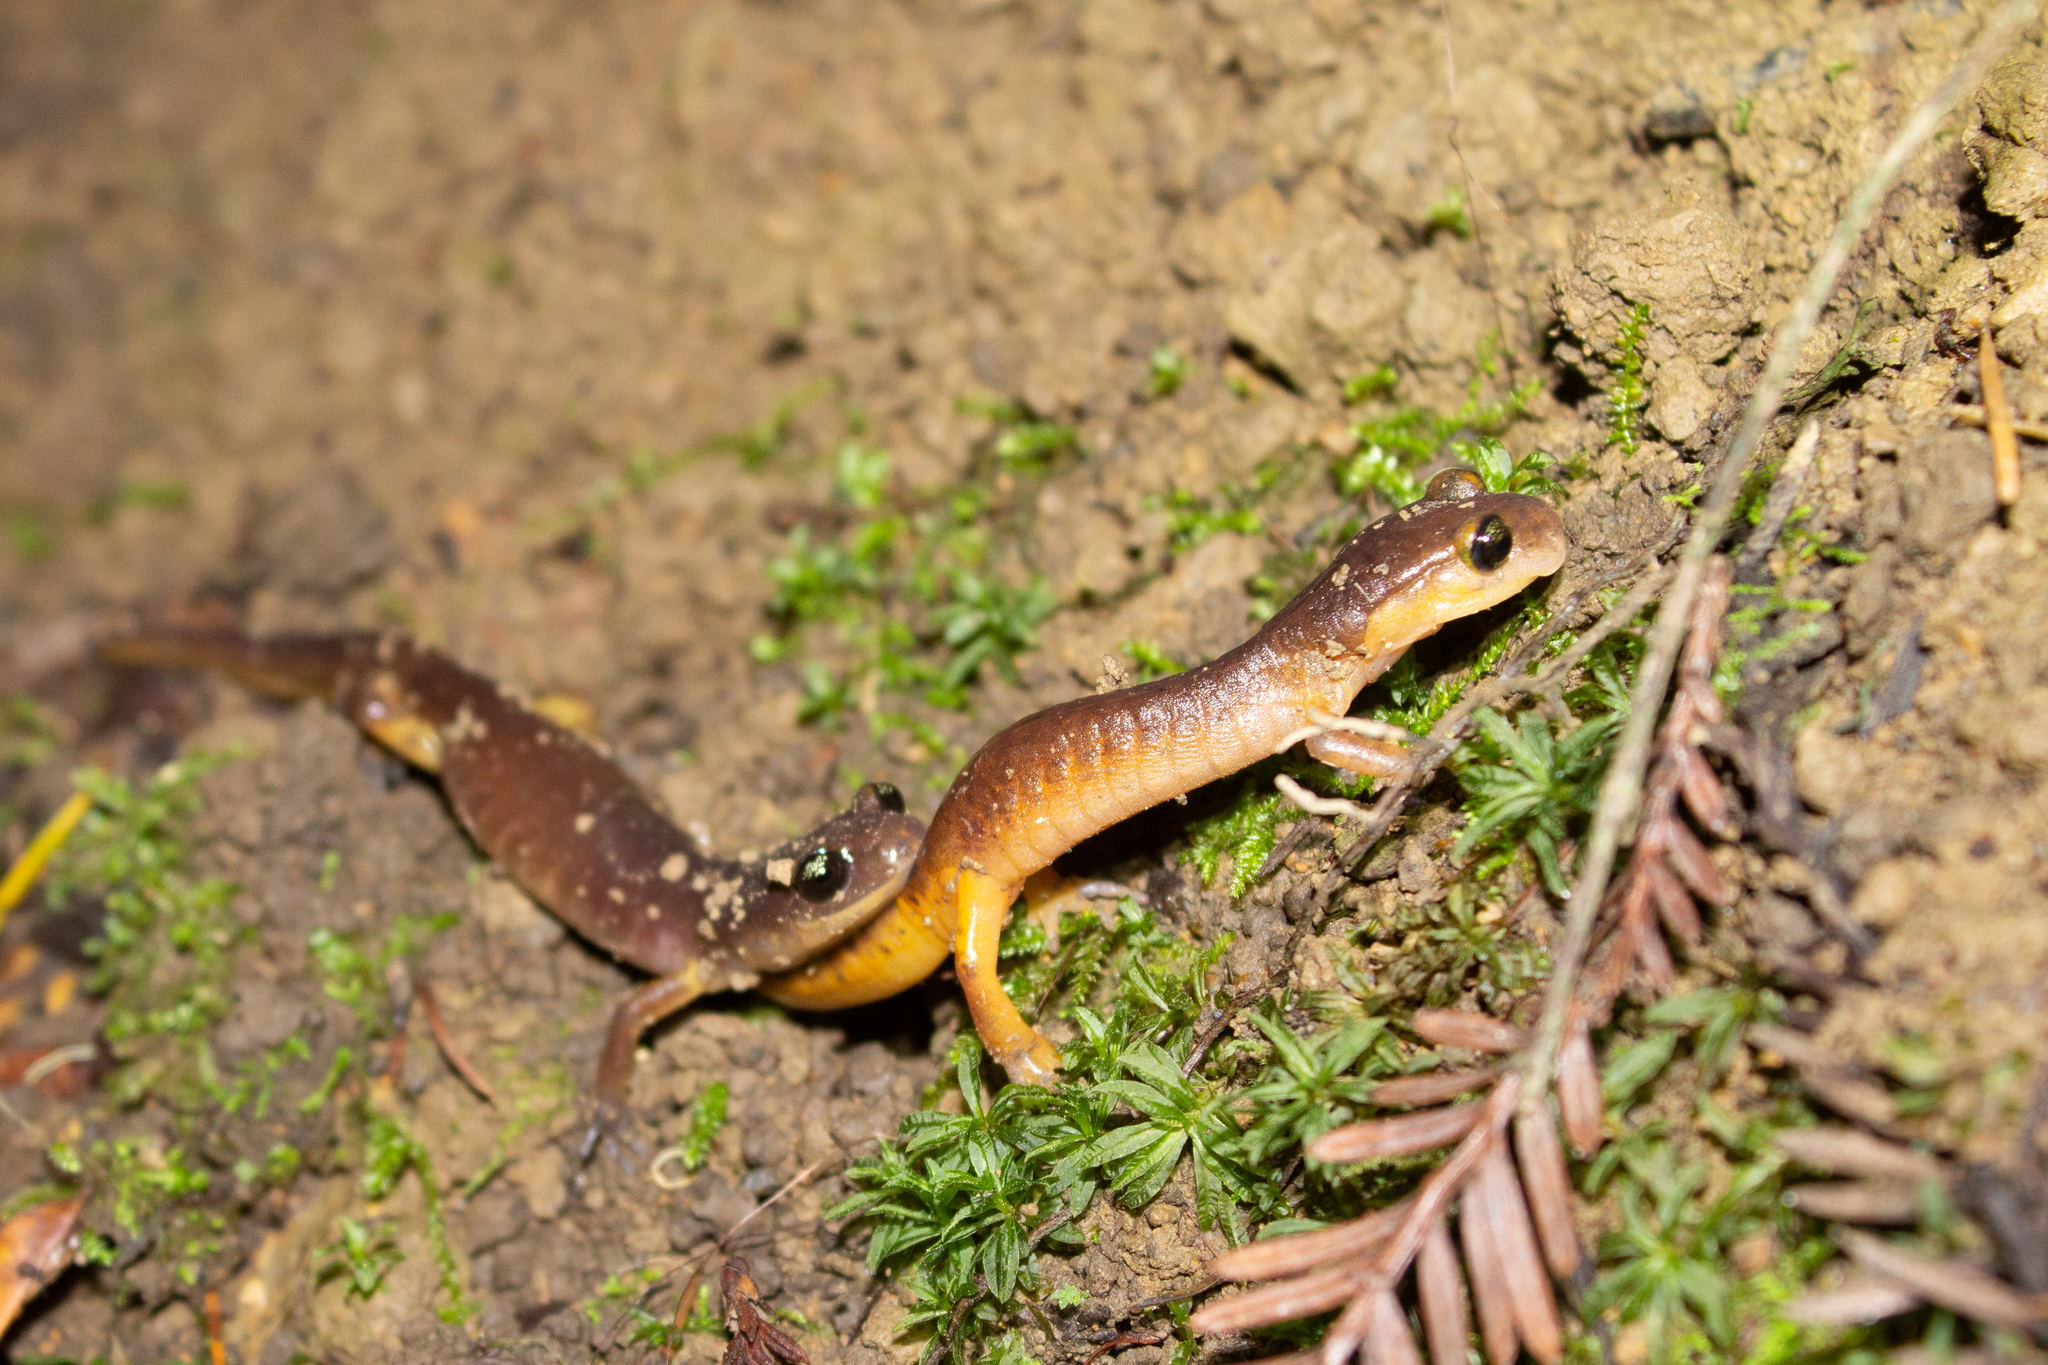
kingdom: Animalia
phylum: Chordata
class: Amphibia
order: Caudata
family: Plethodontidae
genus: Ensatina
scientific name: Ensatina eschscholtzii
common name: Ensatina
